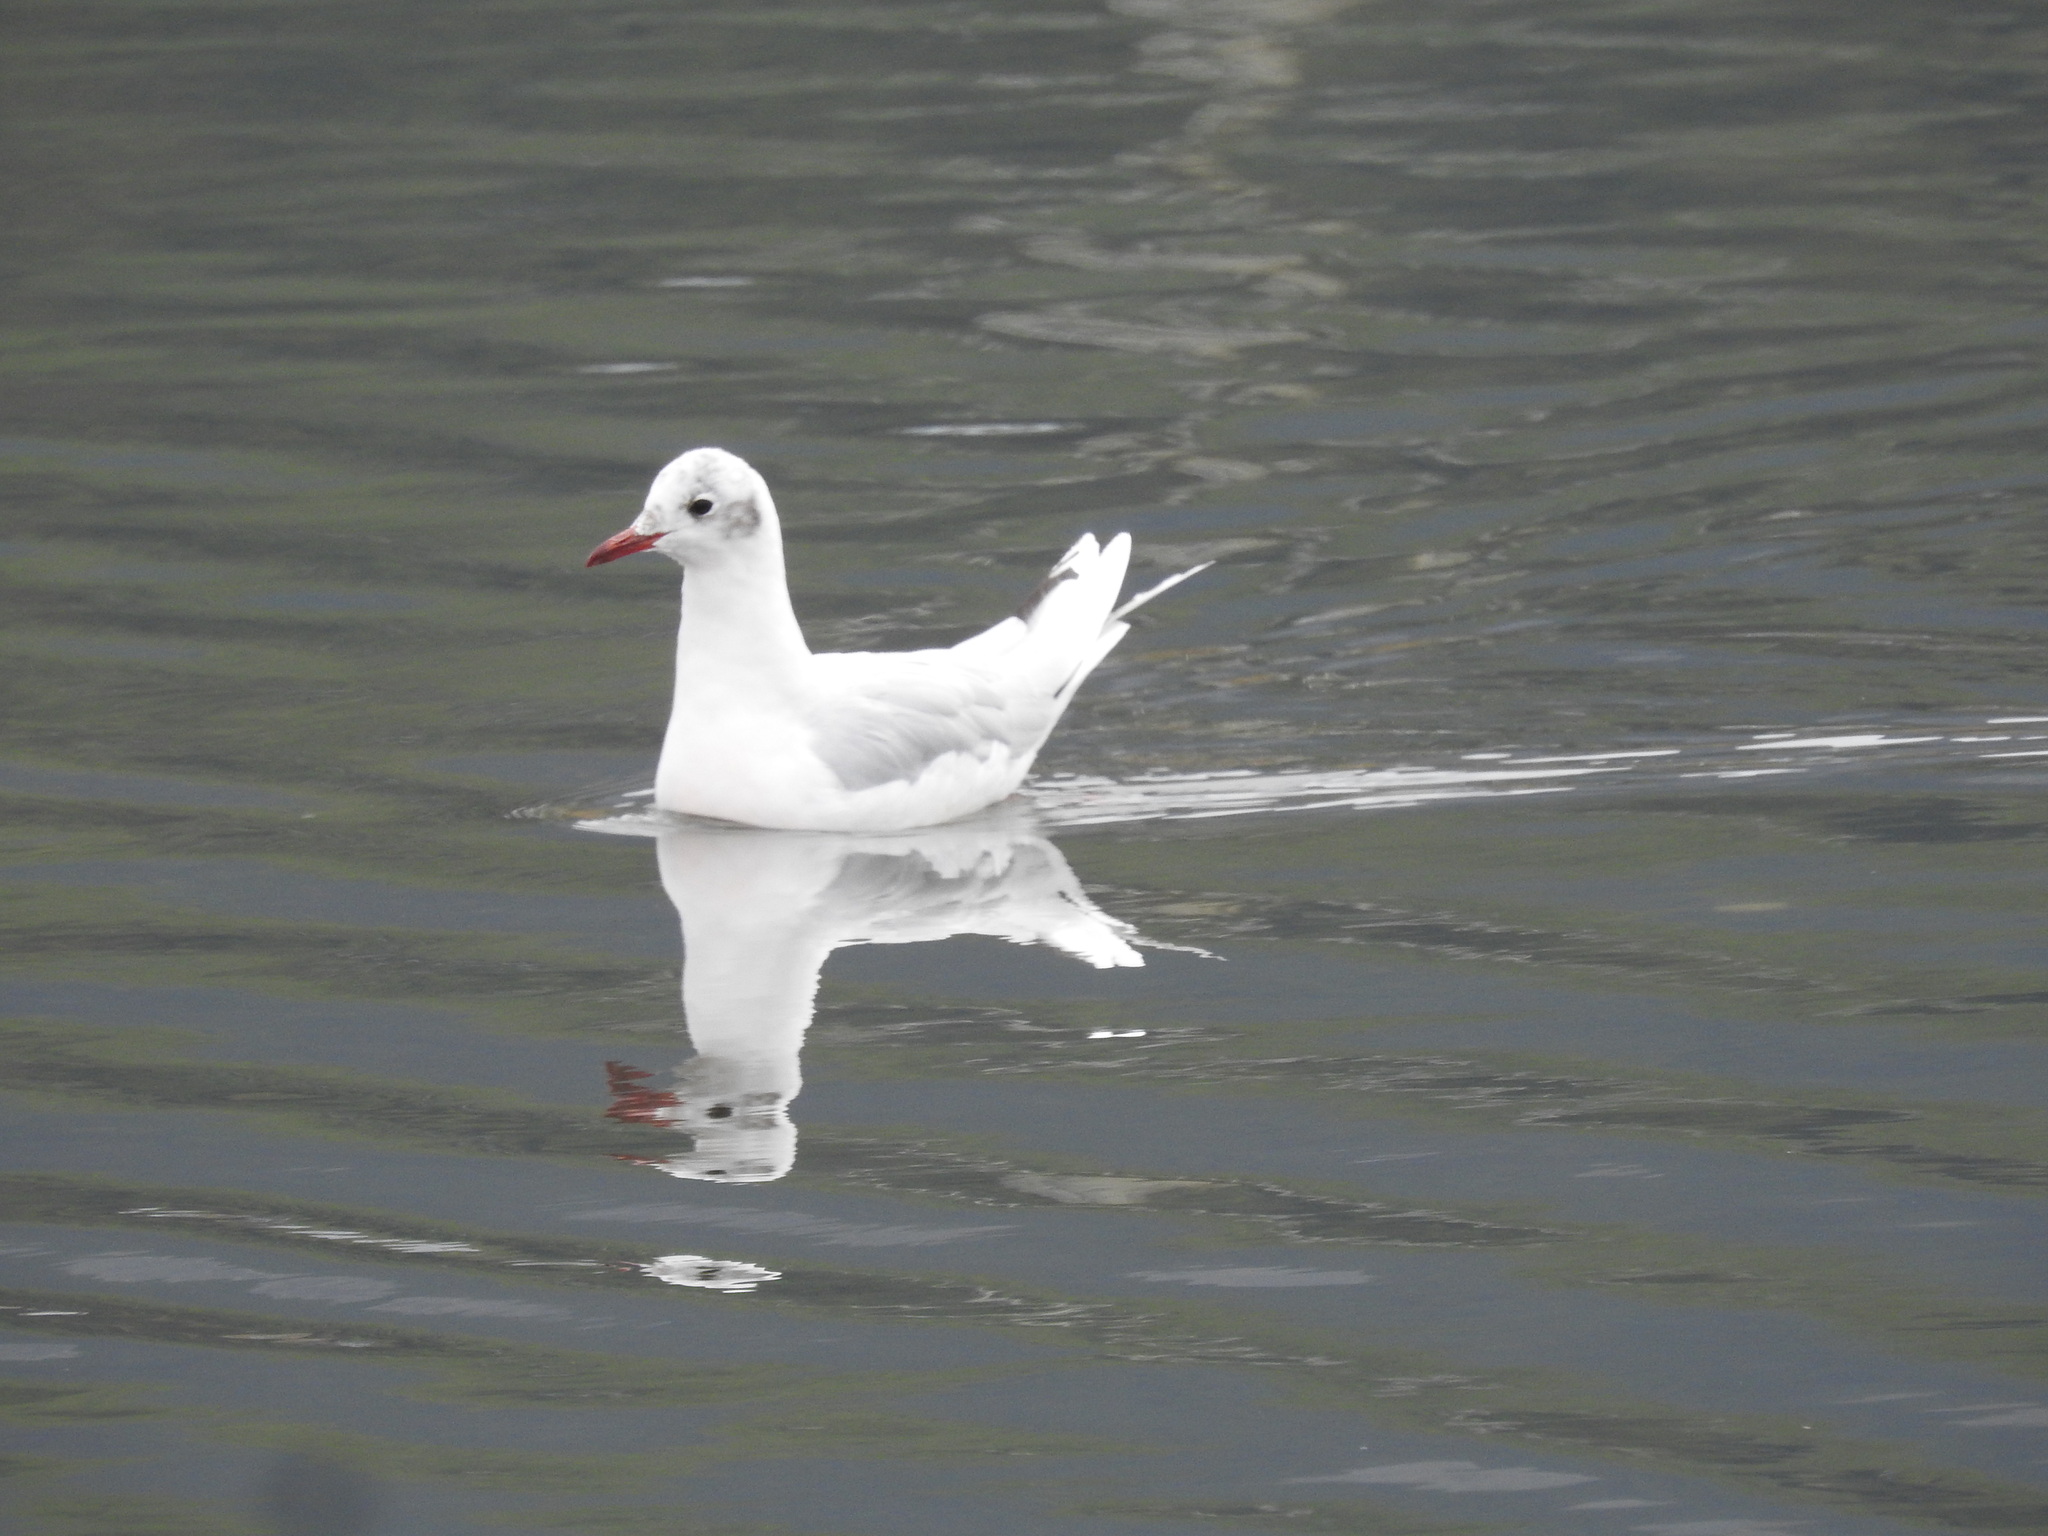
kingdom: Animalia
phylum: Chordata
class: Aves
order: Charadriiformes
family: Laridae
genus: Chroicocephalus
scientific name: Chroicocephalus maculipennis
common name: Brown-hooded gull
